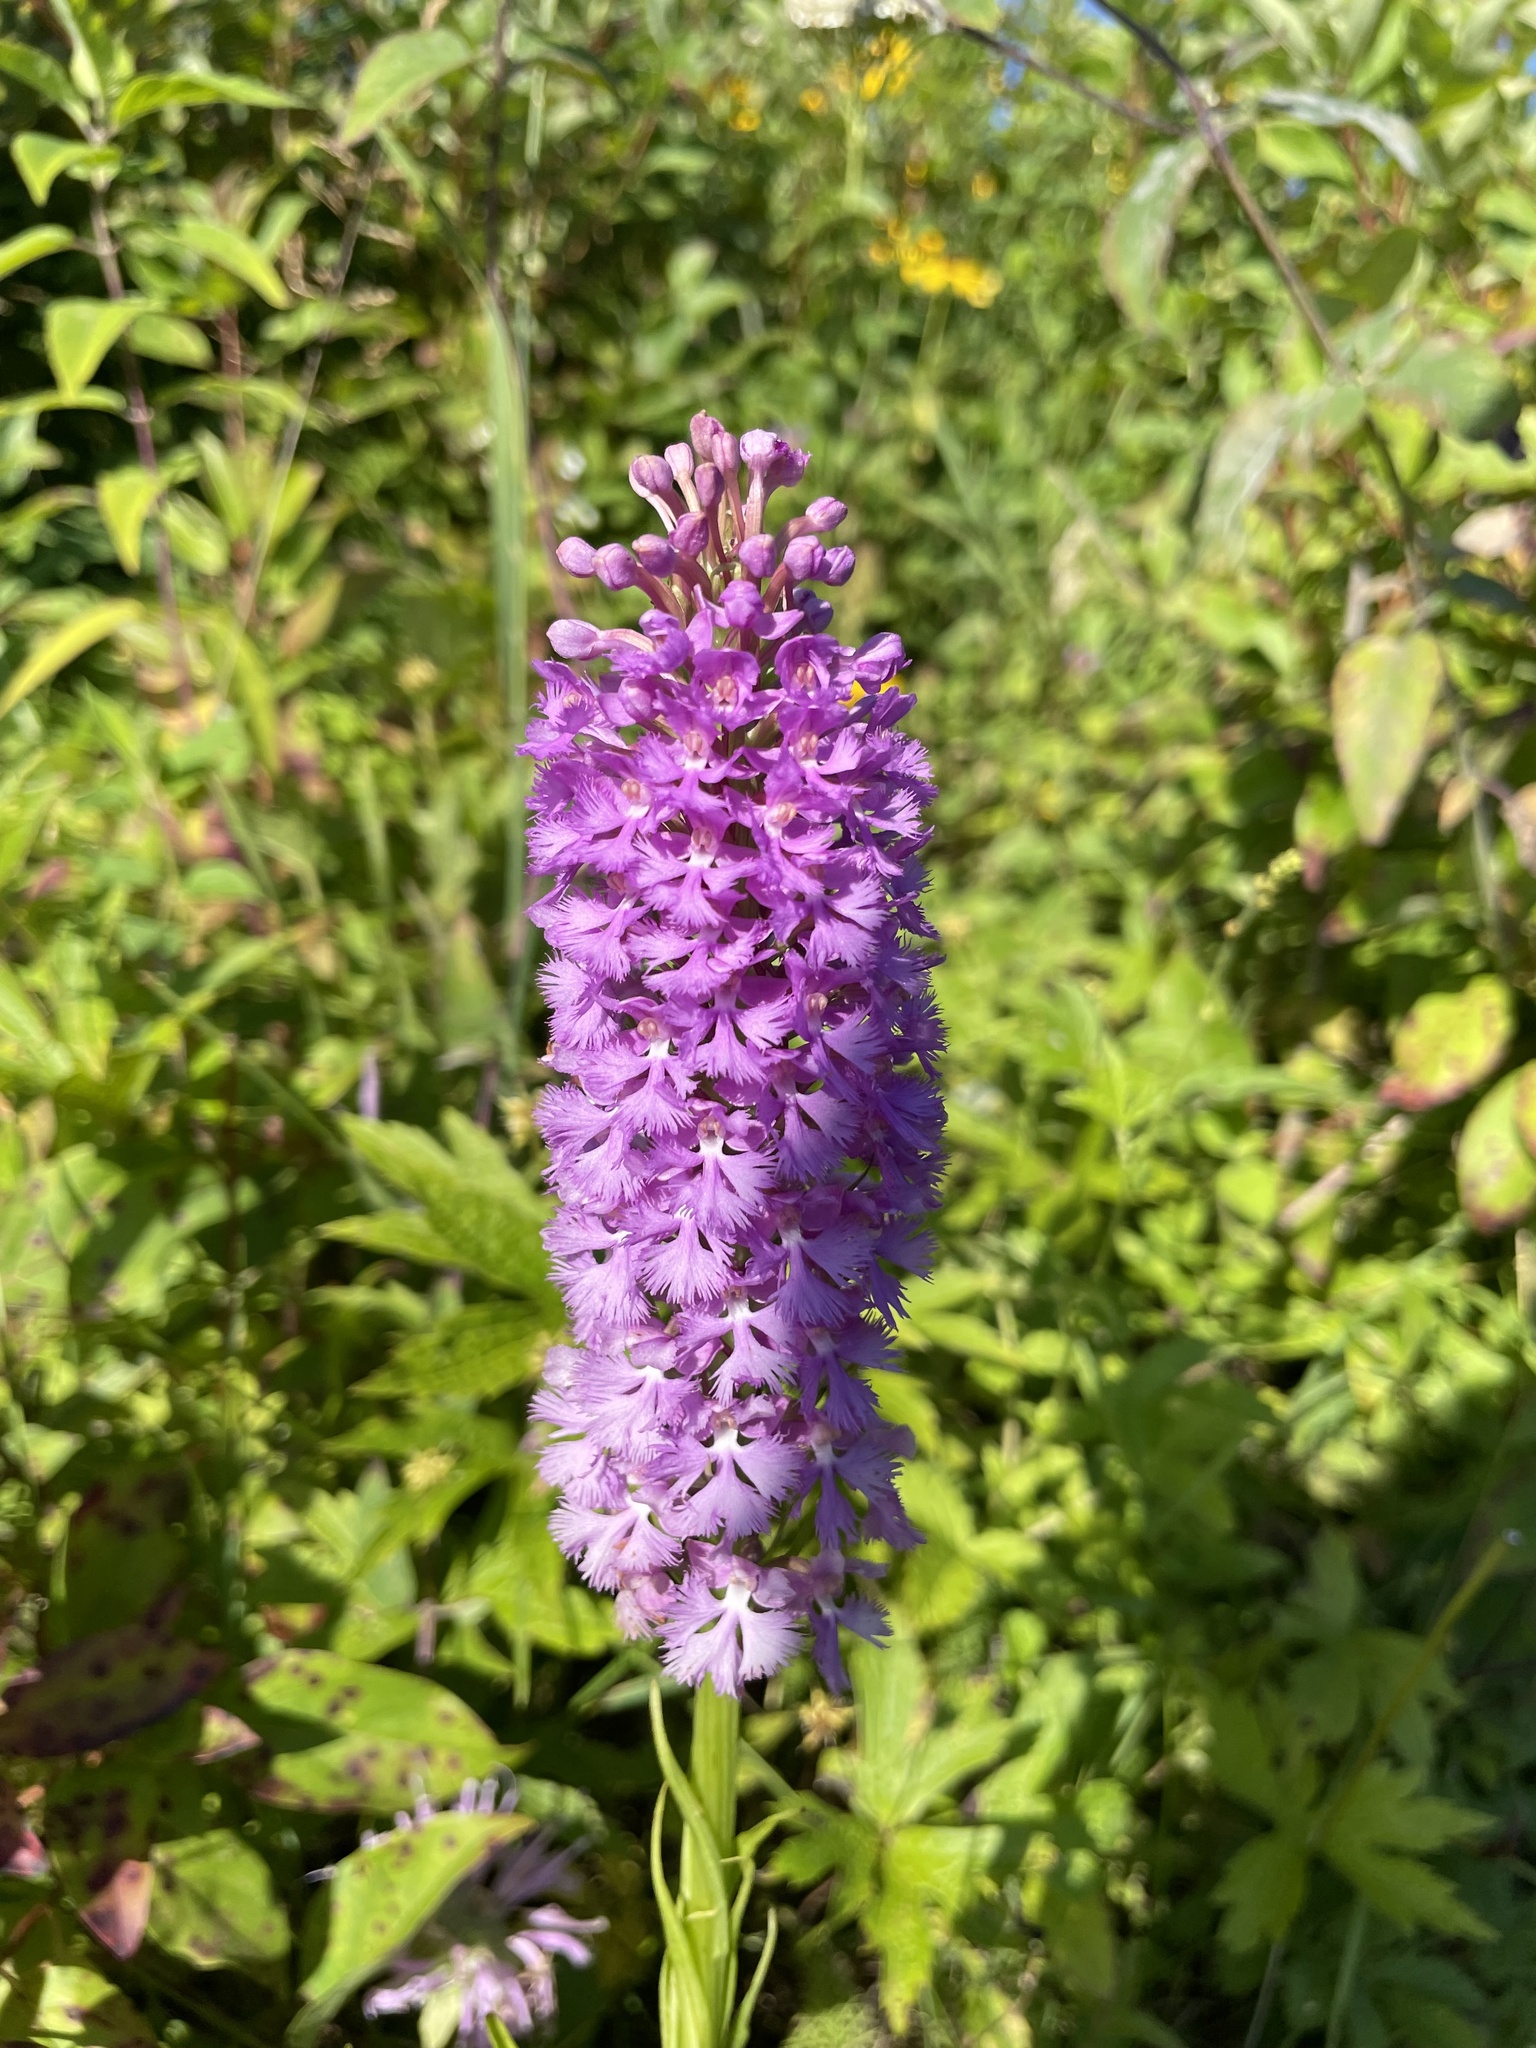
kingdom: Plantae
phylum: Tracheophyta
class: Liliopsida
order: Asparagales
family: Orchidaceae
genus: Platanthera
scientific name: Platanthera psycodes
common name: Lesser purple fringed orchid
